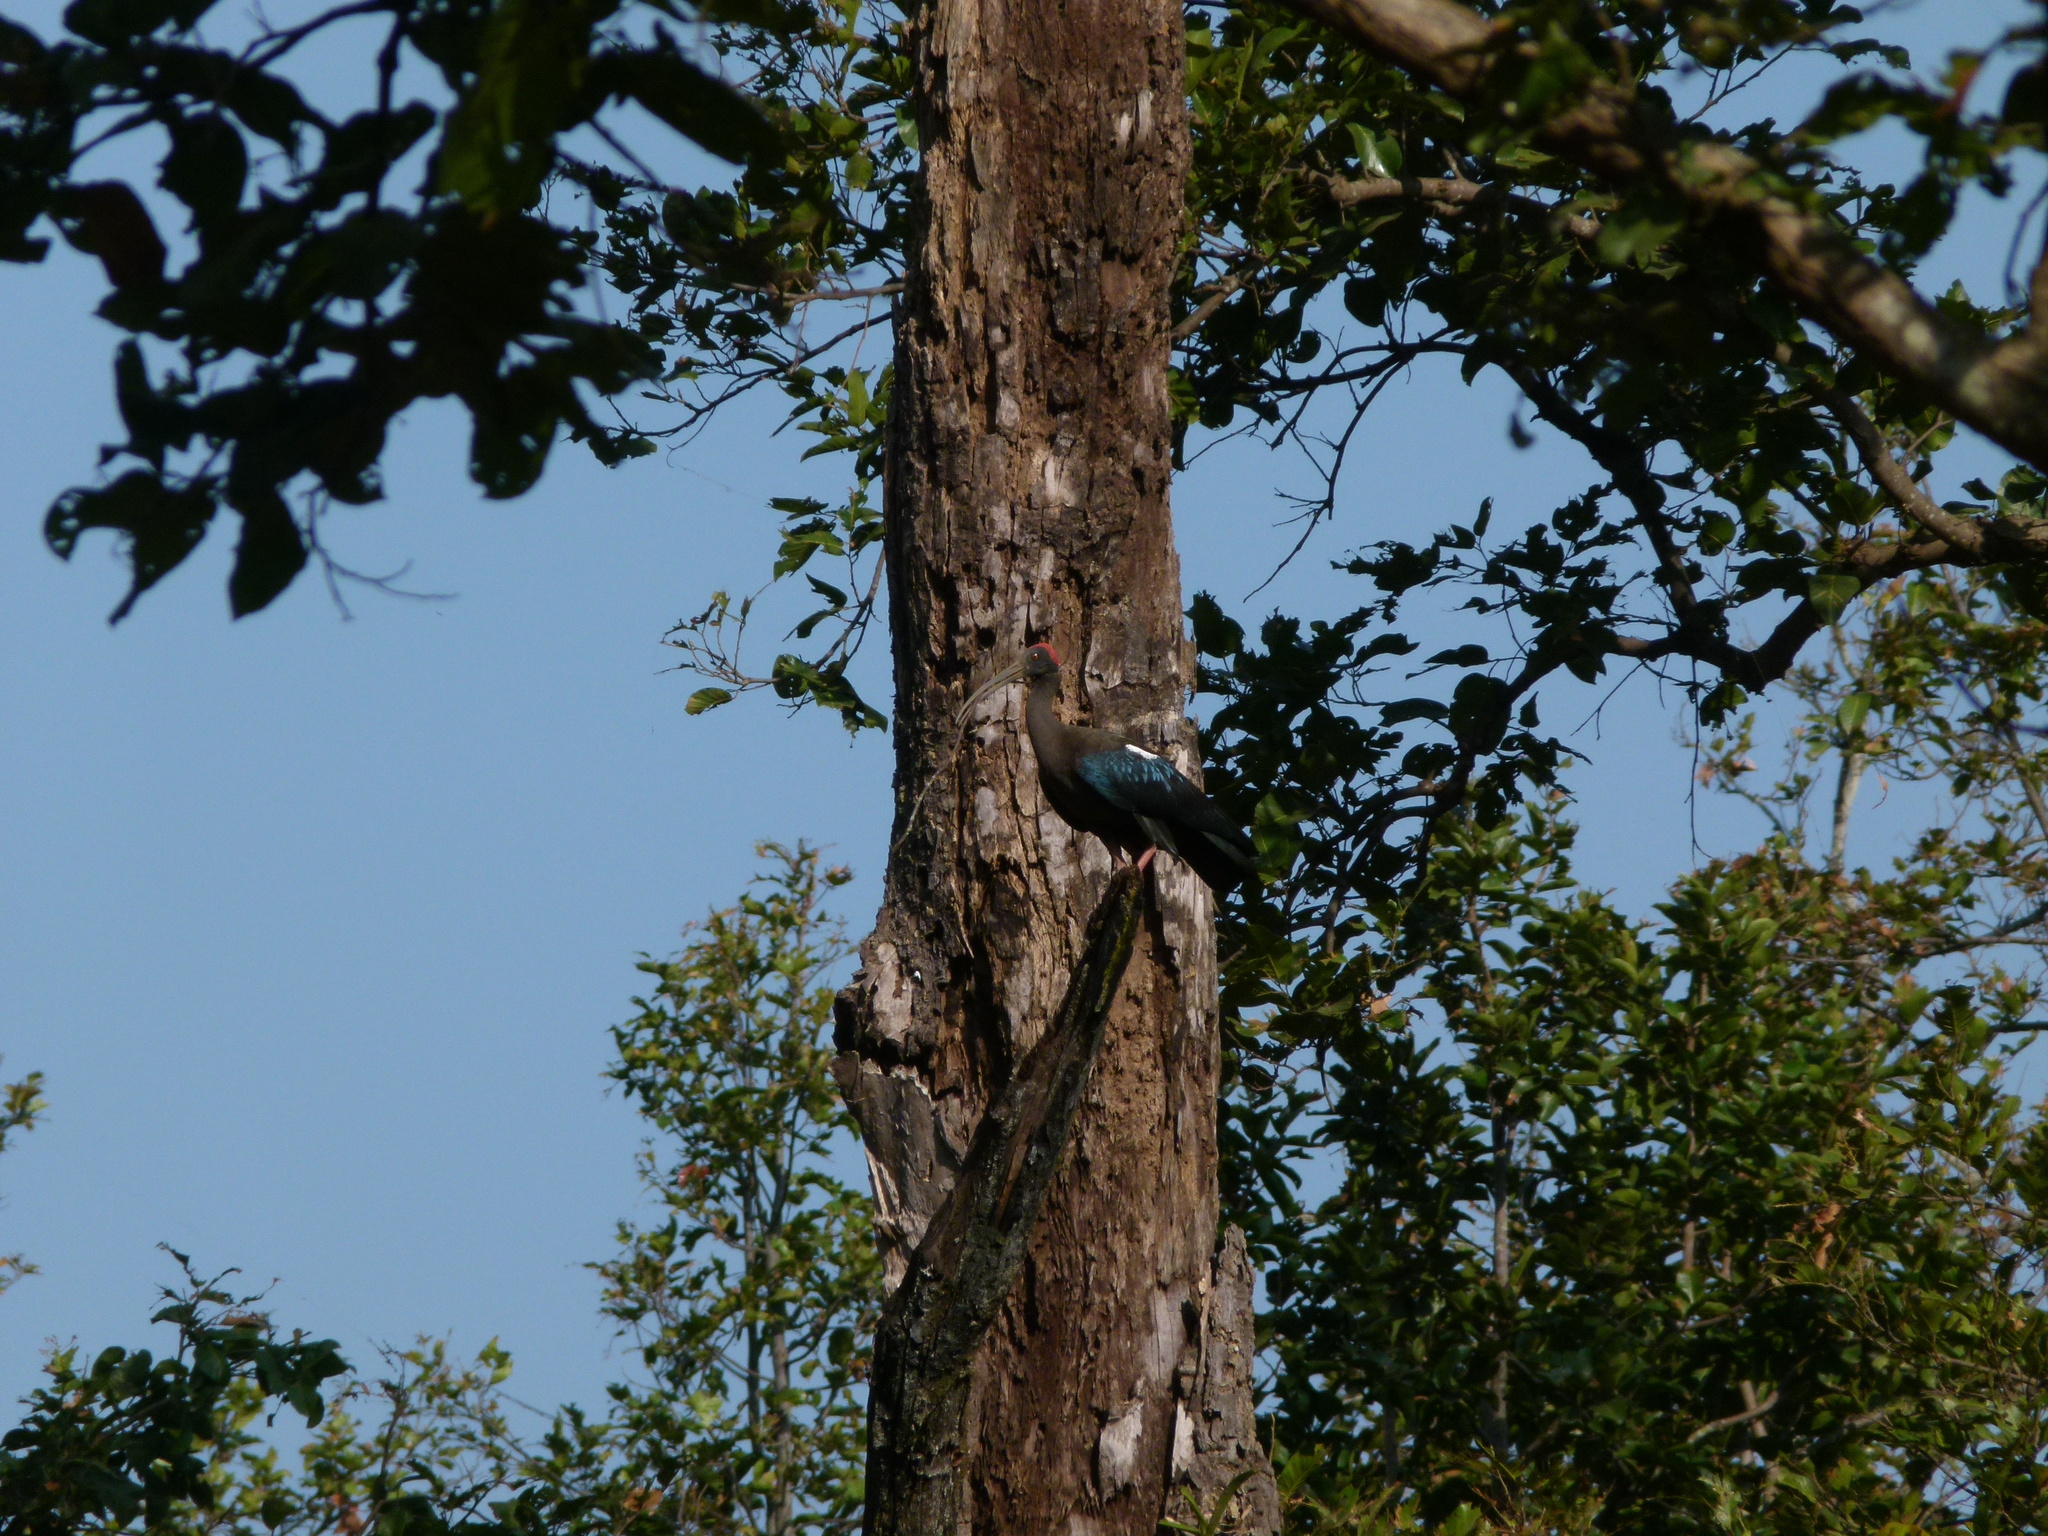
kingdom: Animalia
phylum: Chordata
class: Aves
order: Pelecaniformes
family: Threskiornithidae
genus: Pseudibis
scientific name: Pseudibis papillosa
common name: Red-naped ibis
